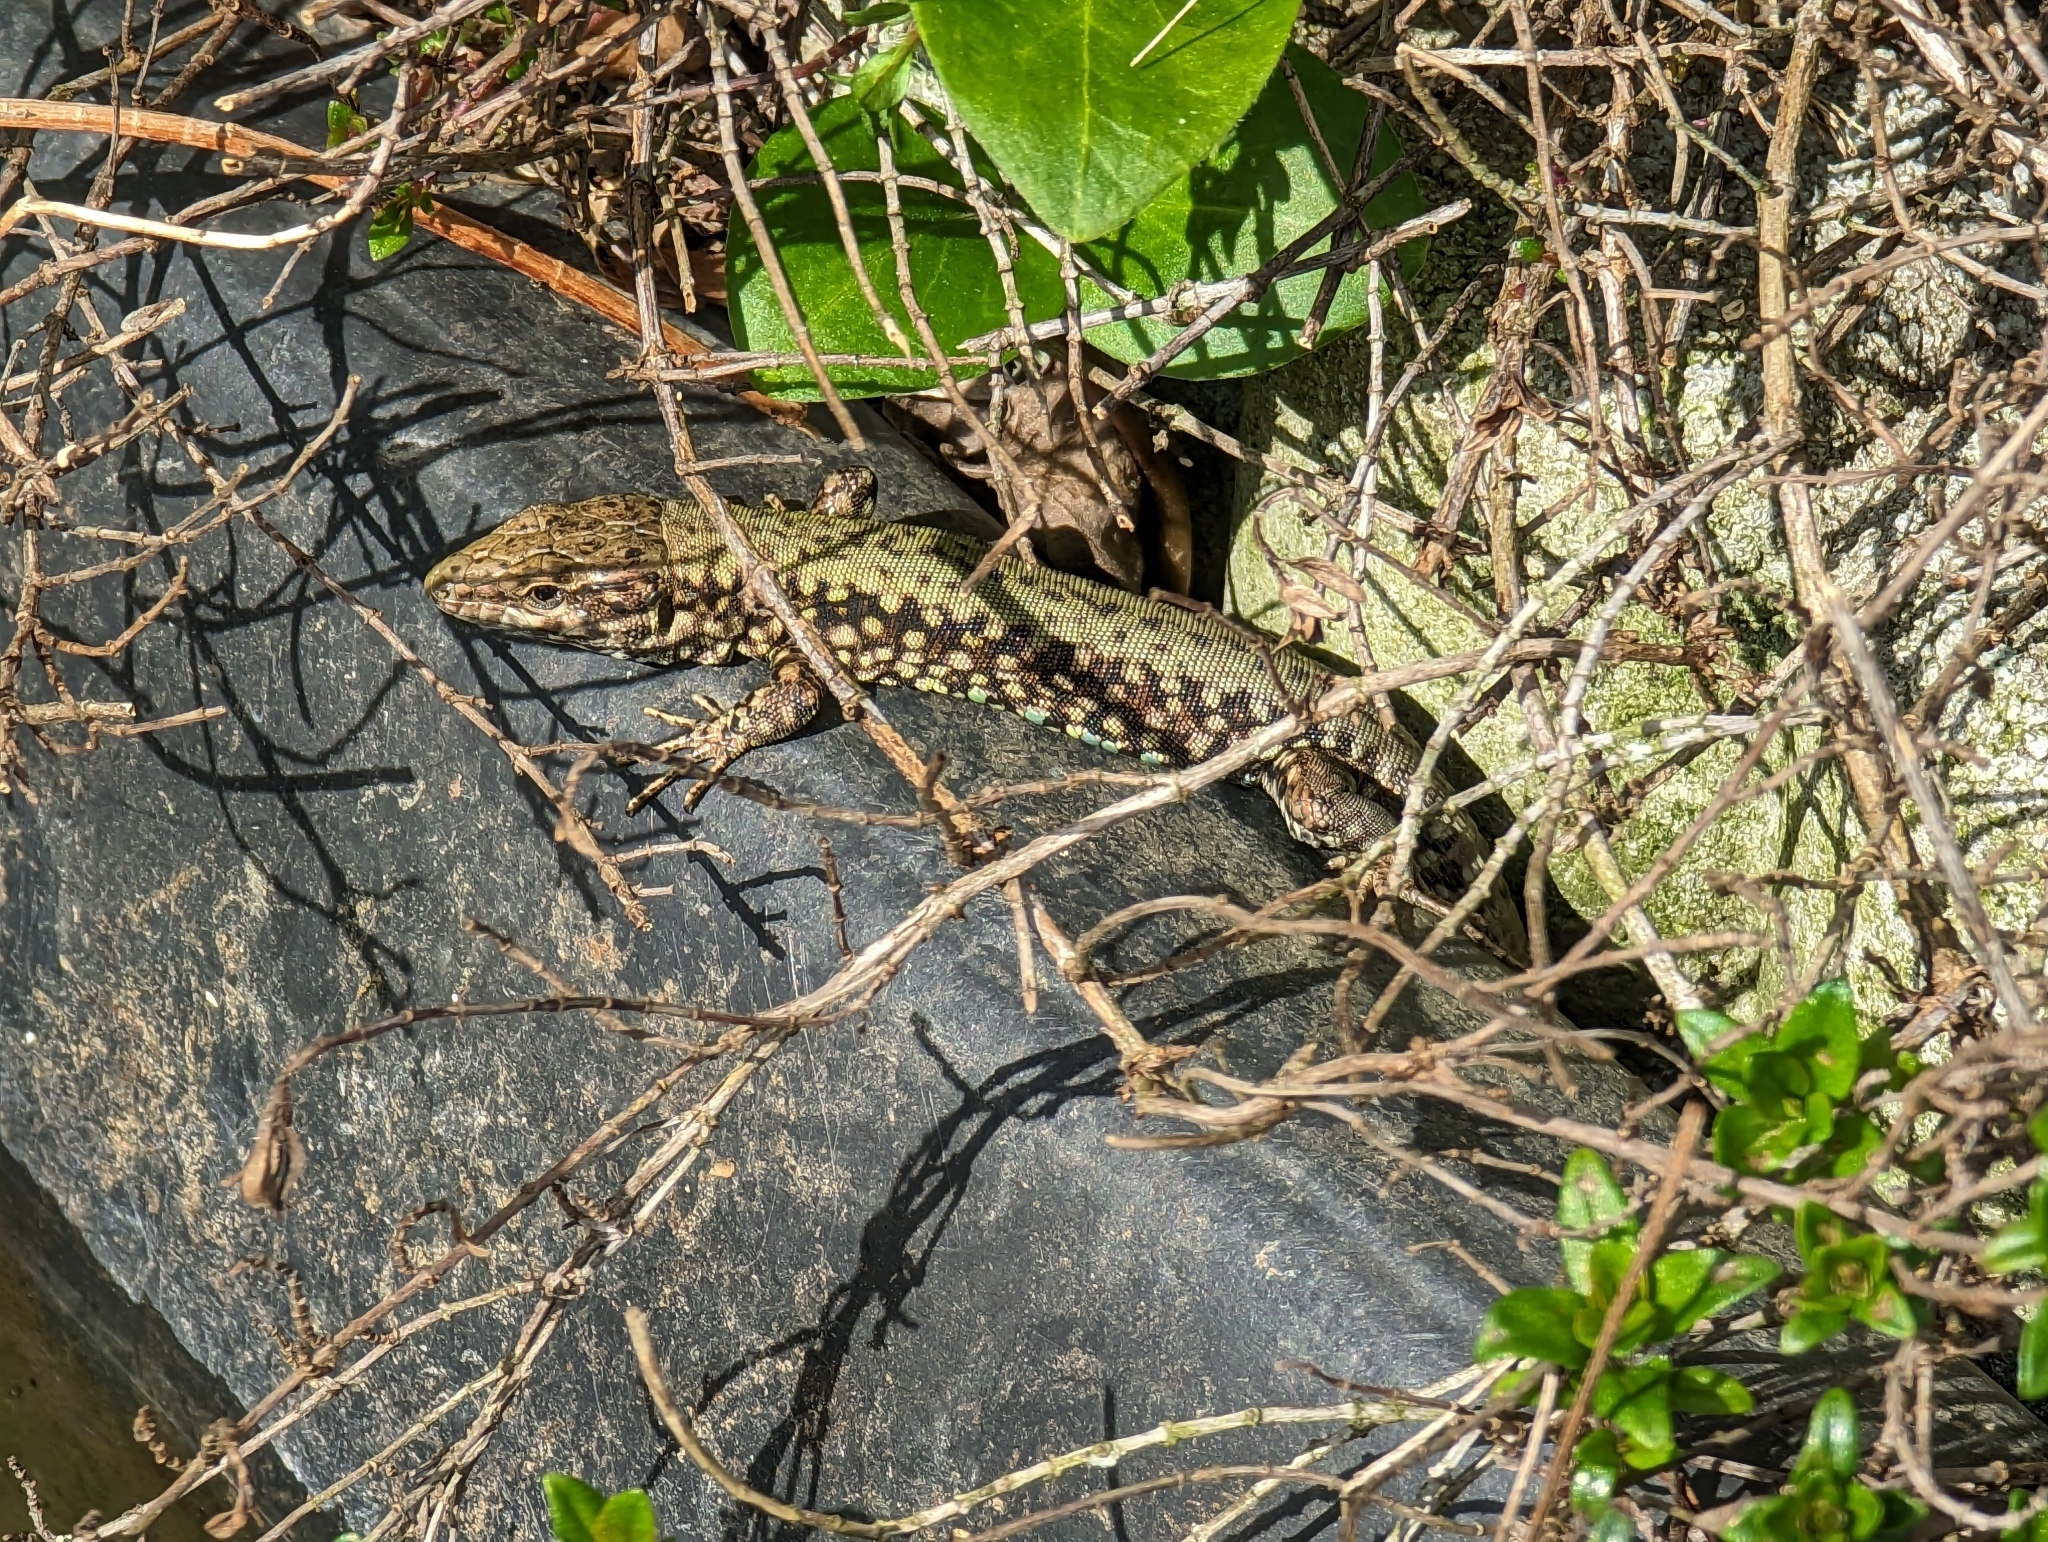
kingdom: Animalia
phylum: Chordata
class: Squamata
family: Lacertidae
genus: Podarcis
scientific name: Podarcis muralis
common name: Common wall lizard
